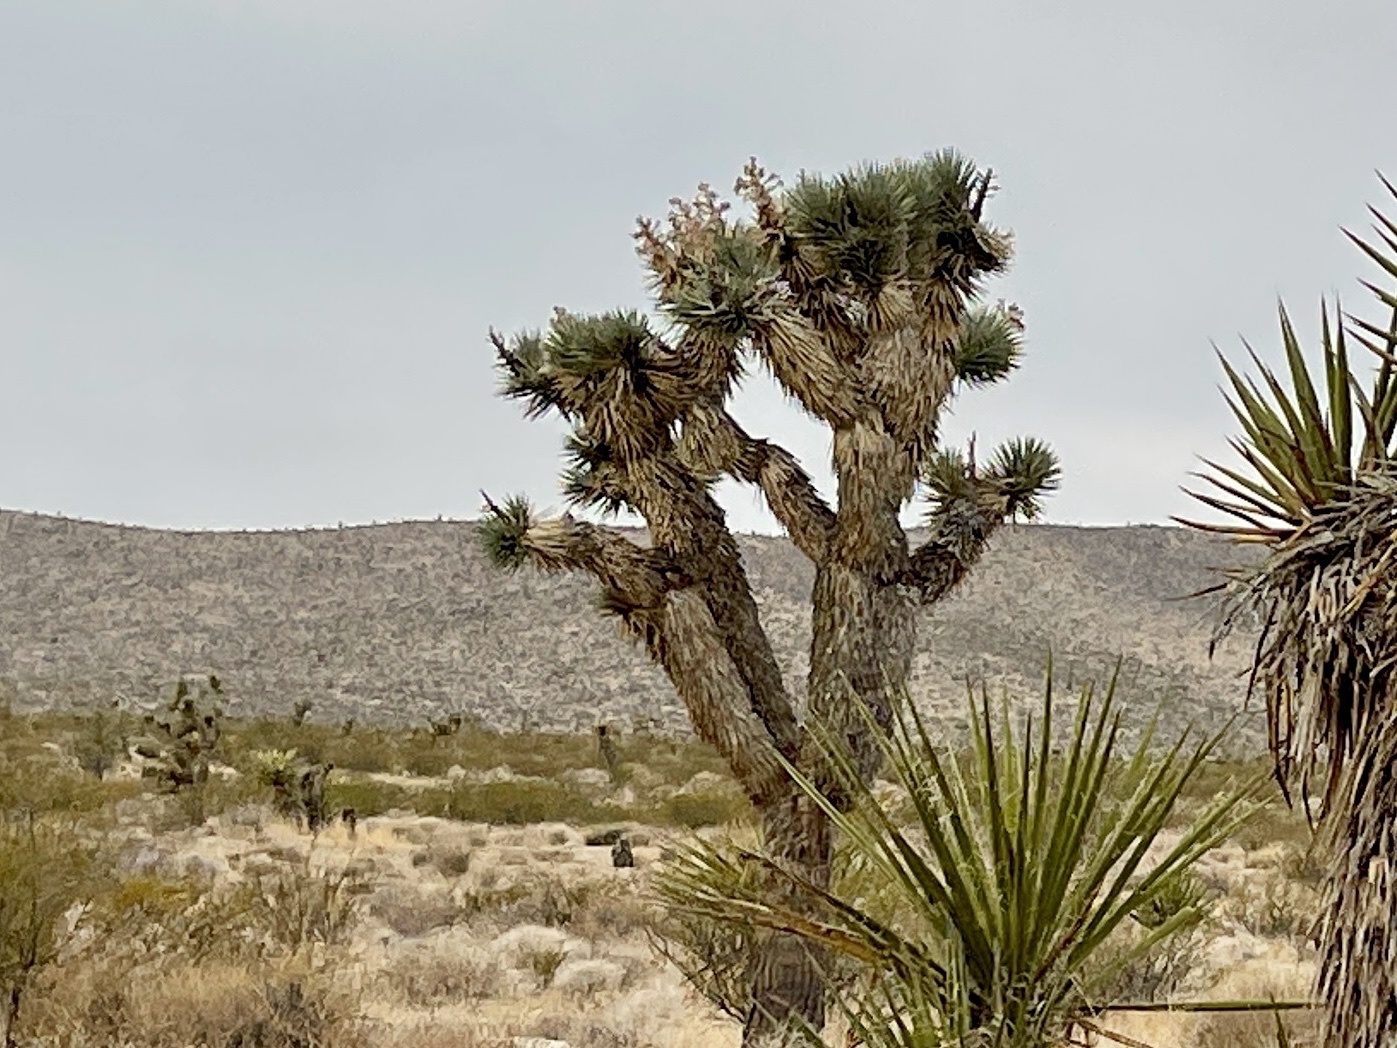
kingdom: Plantae
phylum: Tracheophyta
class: Liliopsida
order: Asparagales
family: Asparagaceae
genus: Yucca
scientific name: Yucca brevifolia
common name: Joshua tree
